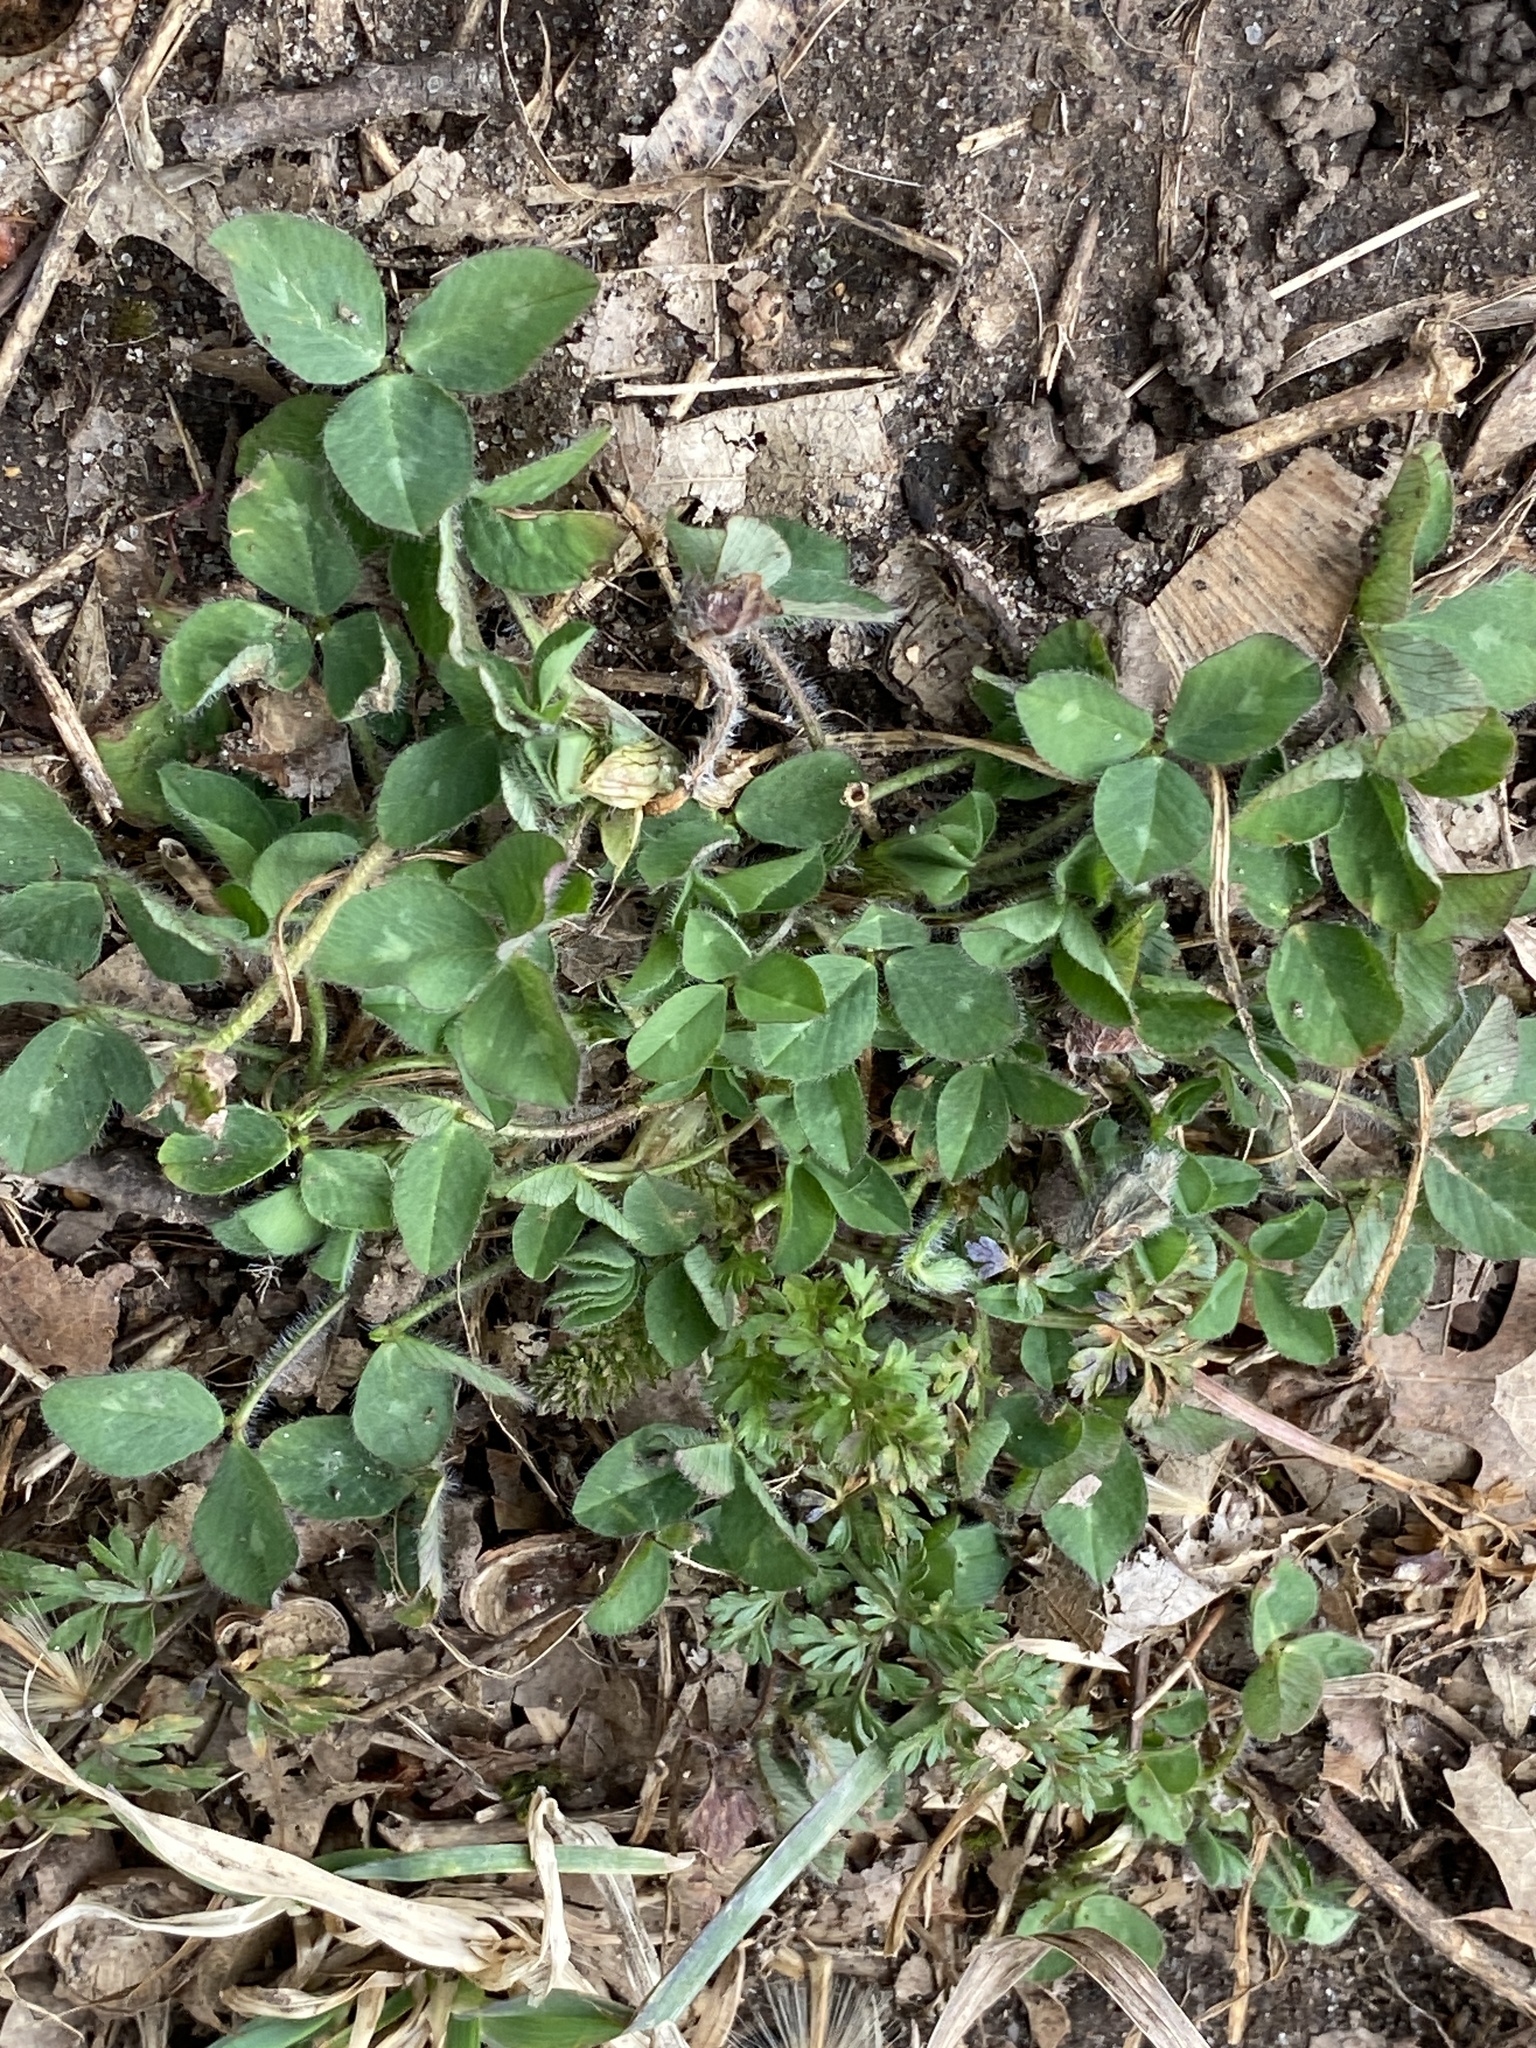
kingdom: Plantae
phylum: Tracheophyta
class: Magnoliopsida
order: Fabales
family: Fabaceae
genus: Trifolium
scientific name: Trifolium pratense
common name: Red clover
